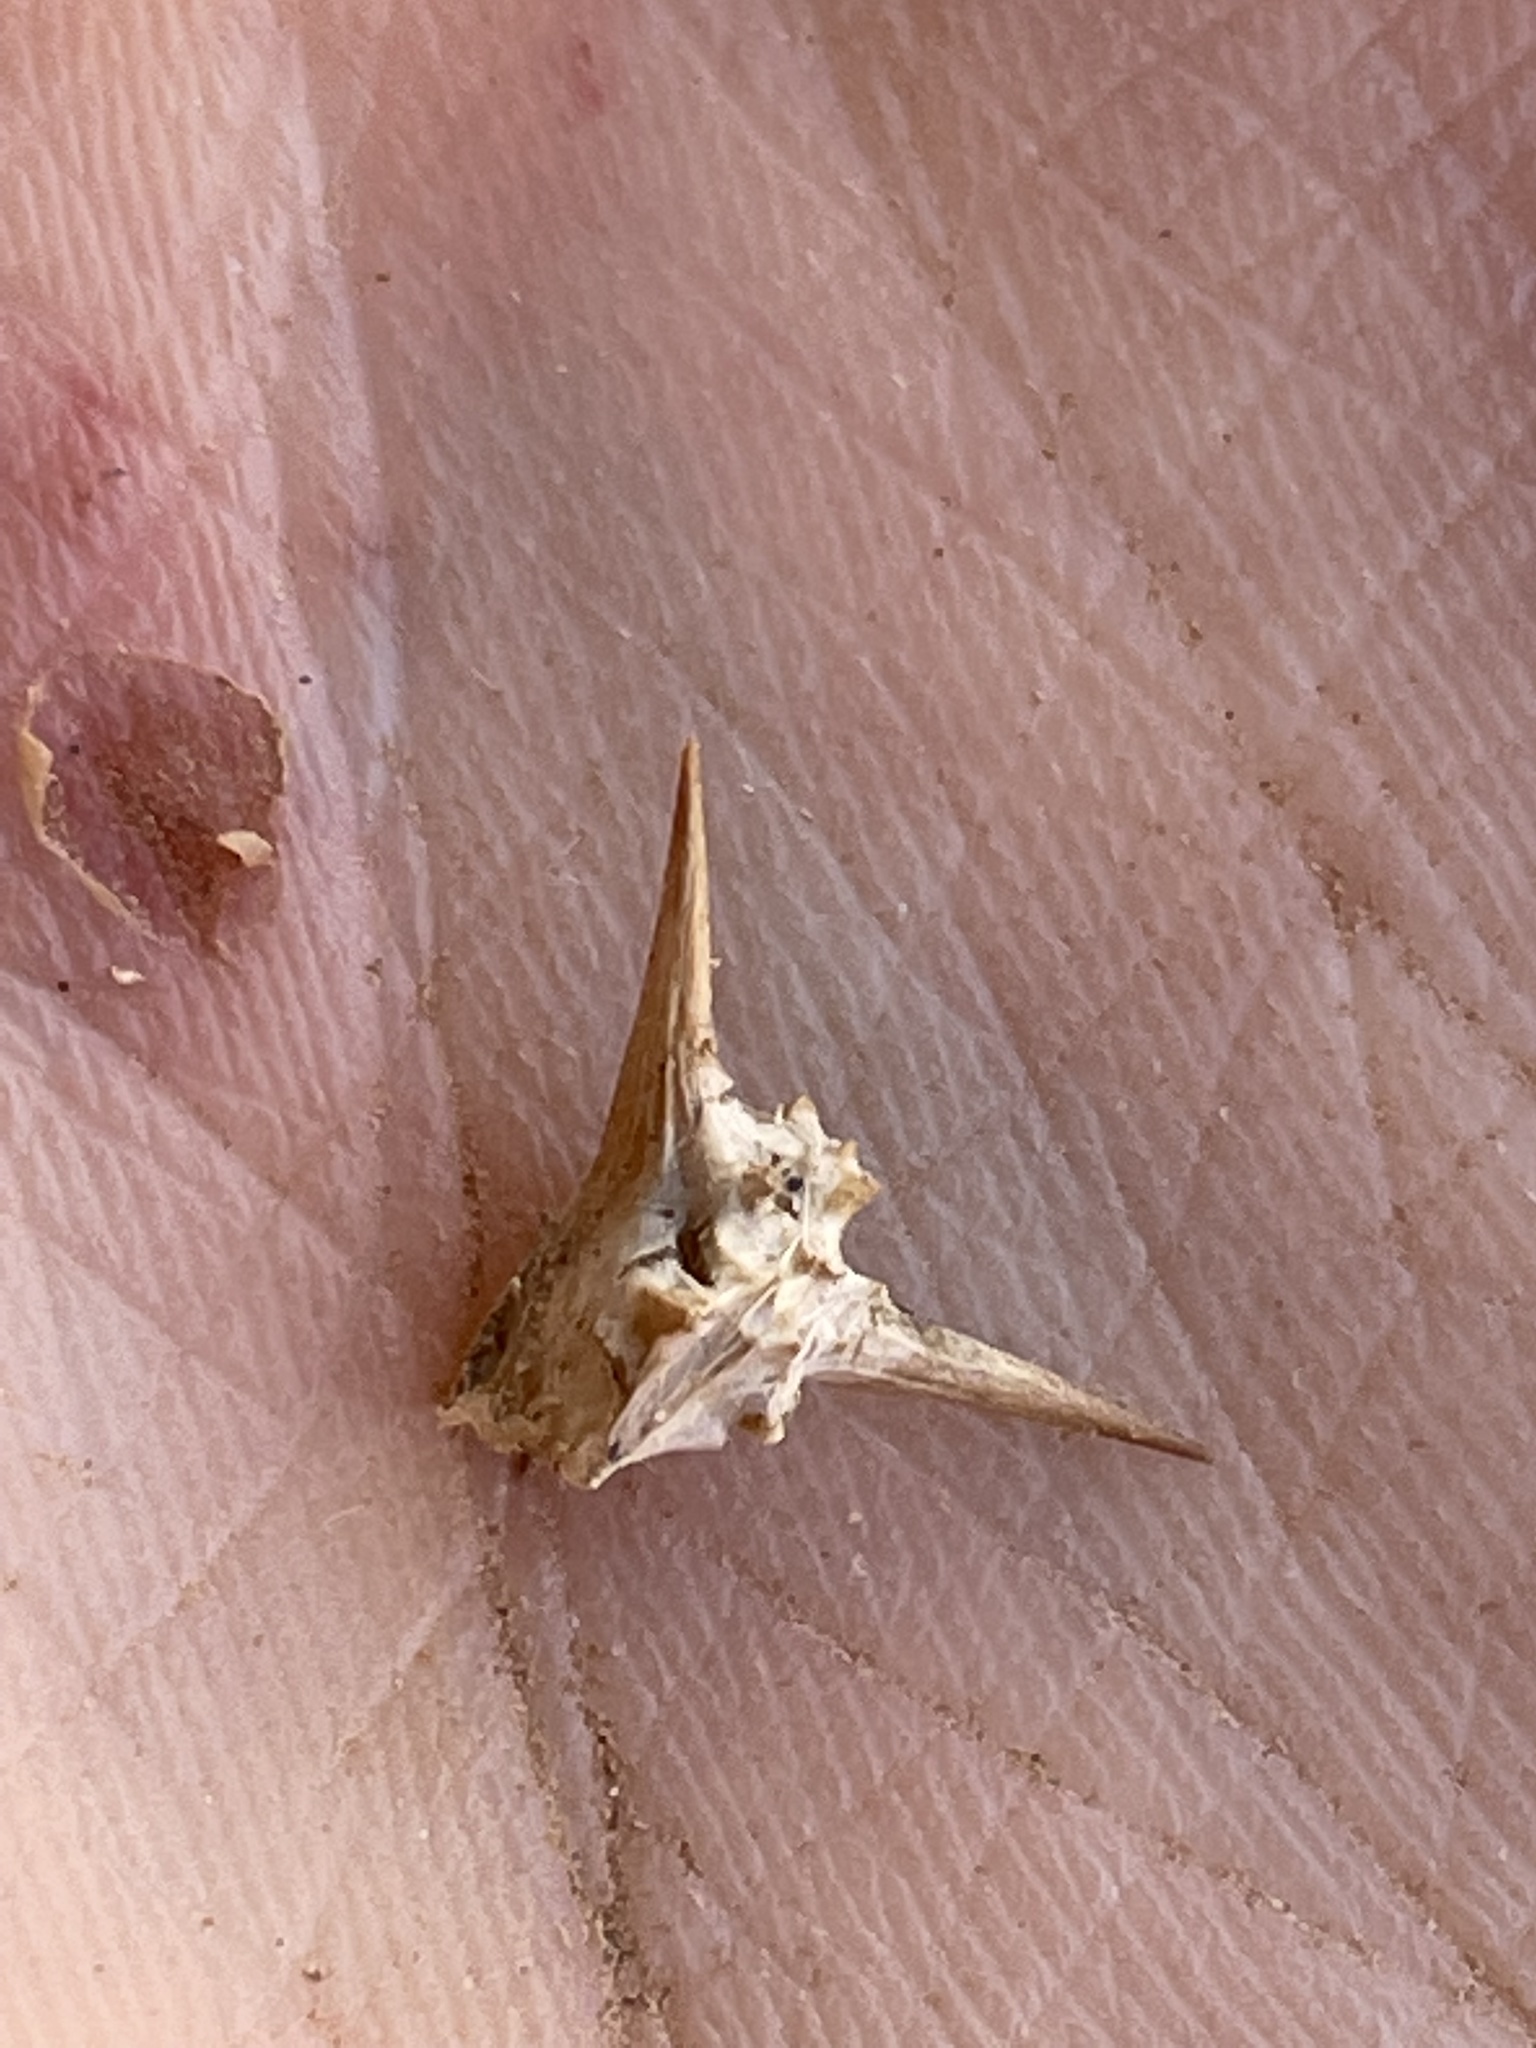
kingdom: Plantae
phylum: Tracheophyta
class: Magnoliopsida
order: Zygophyllales
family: Zygophyllaceae
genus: Tribulus
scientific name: Tribulus terrestris
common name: Puncturevine
